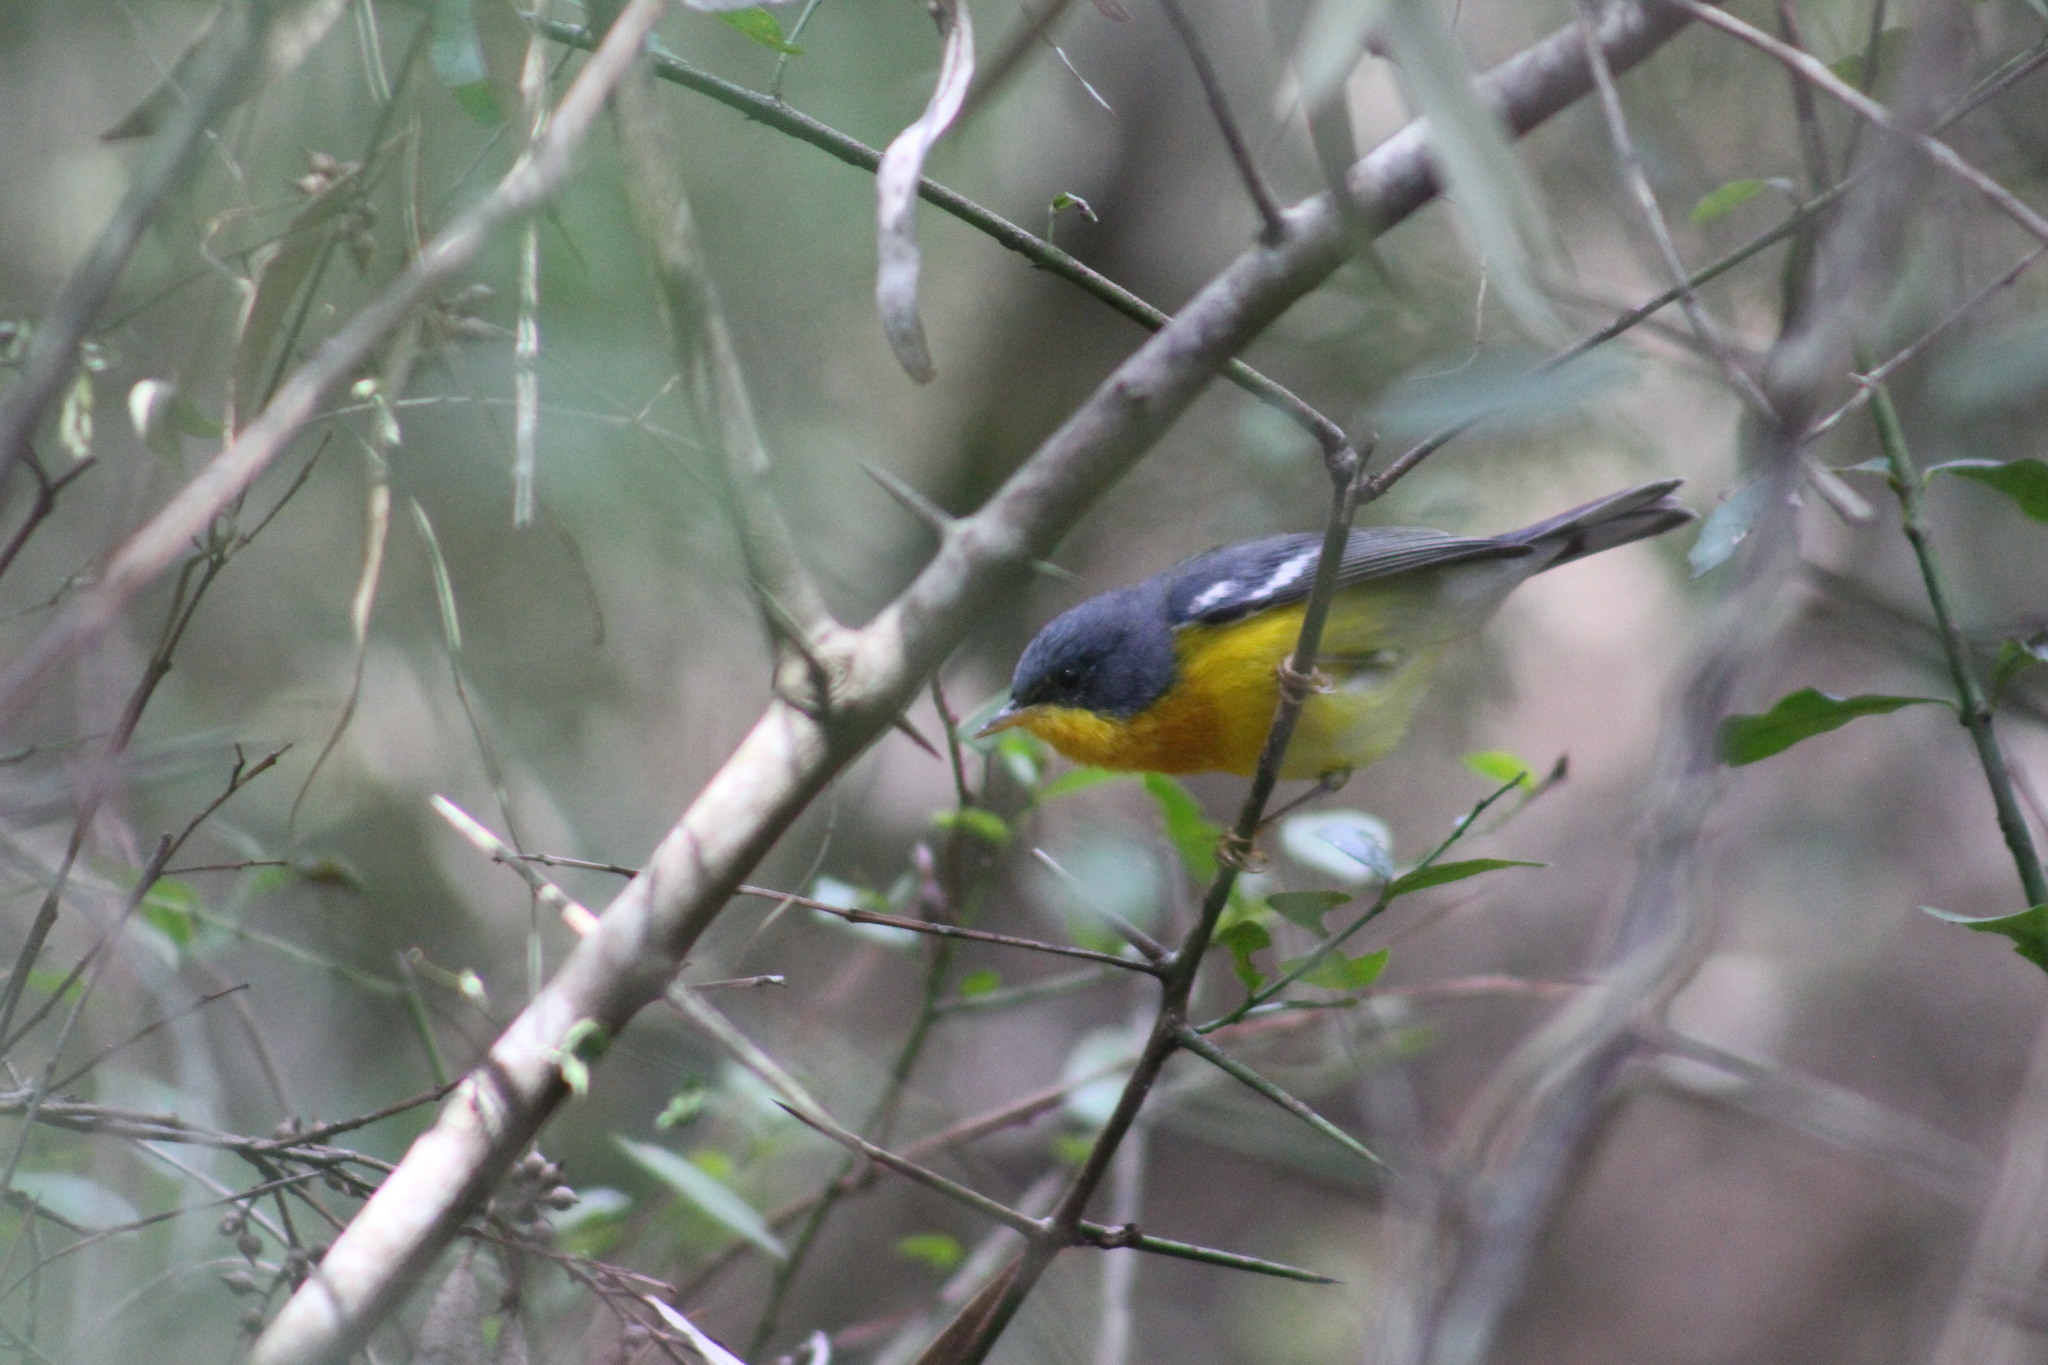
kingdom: Animalia
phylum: Chordata
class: Aves
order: Passeriformes
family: Parulidae
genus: Setophaga
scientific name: Setophaga pitiayumi
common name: Tropical parula
